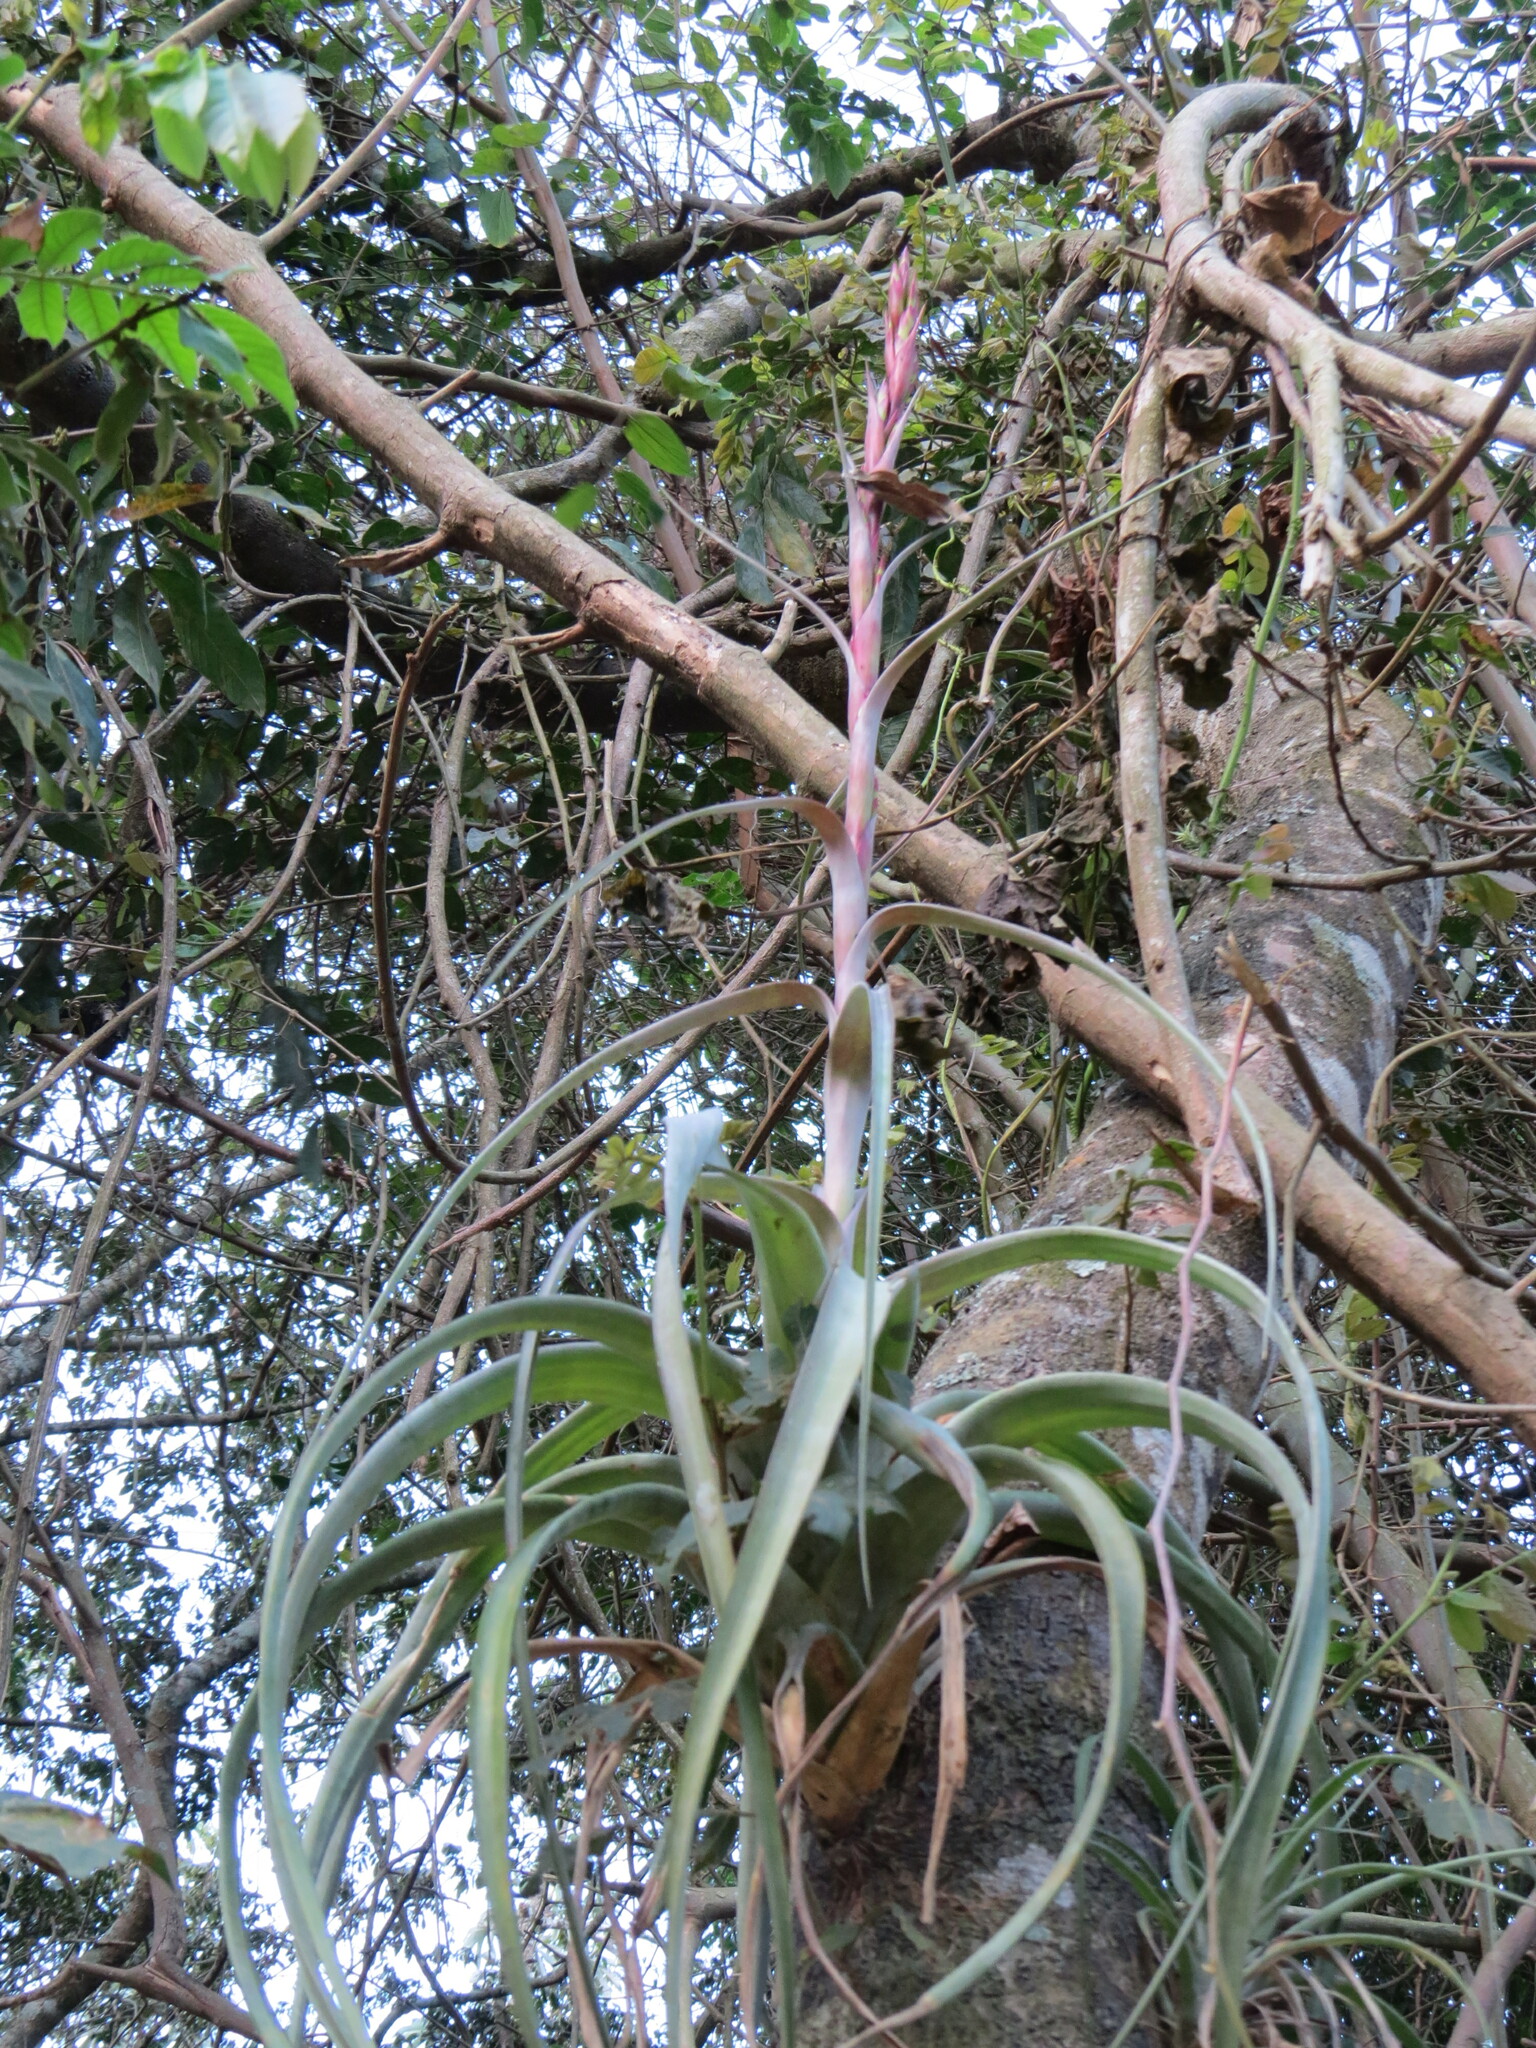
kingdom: Plantae
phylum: Tracheophyta
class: Liliopsida
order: Poales
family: Bromeliaceae
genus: Tillandsia
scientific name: Tillandsia polystachia
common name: Airplant
